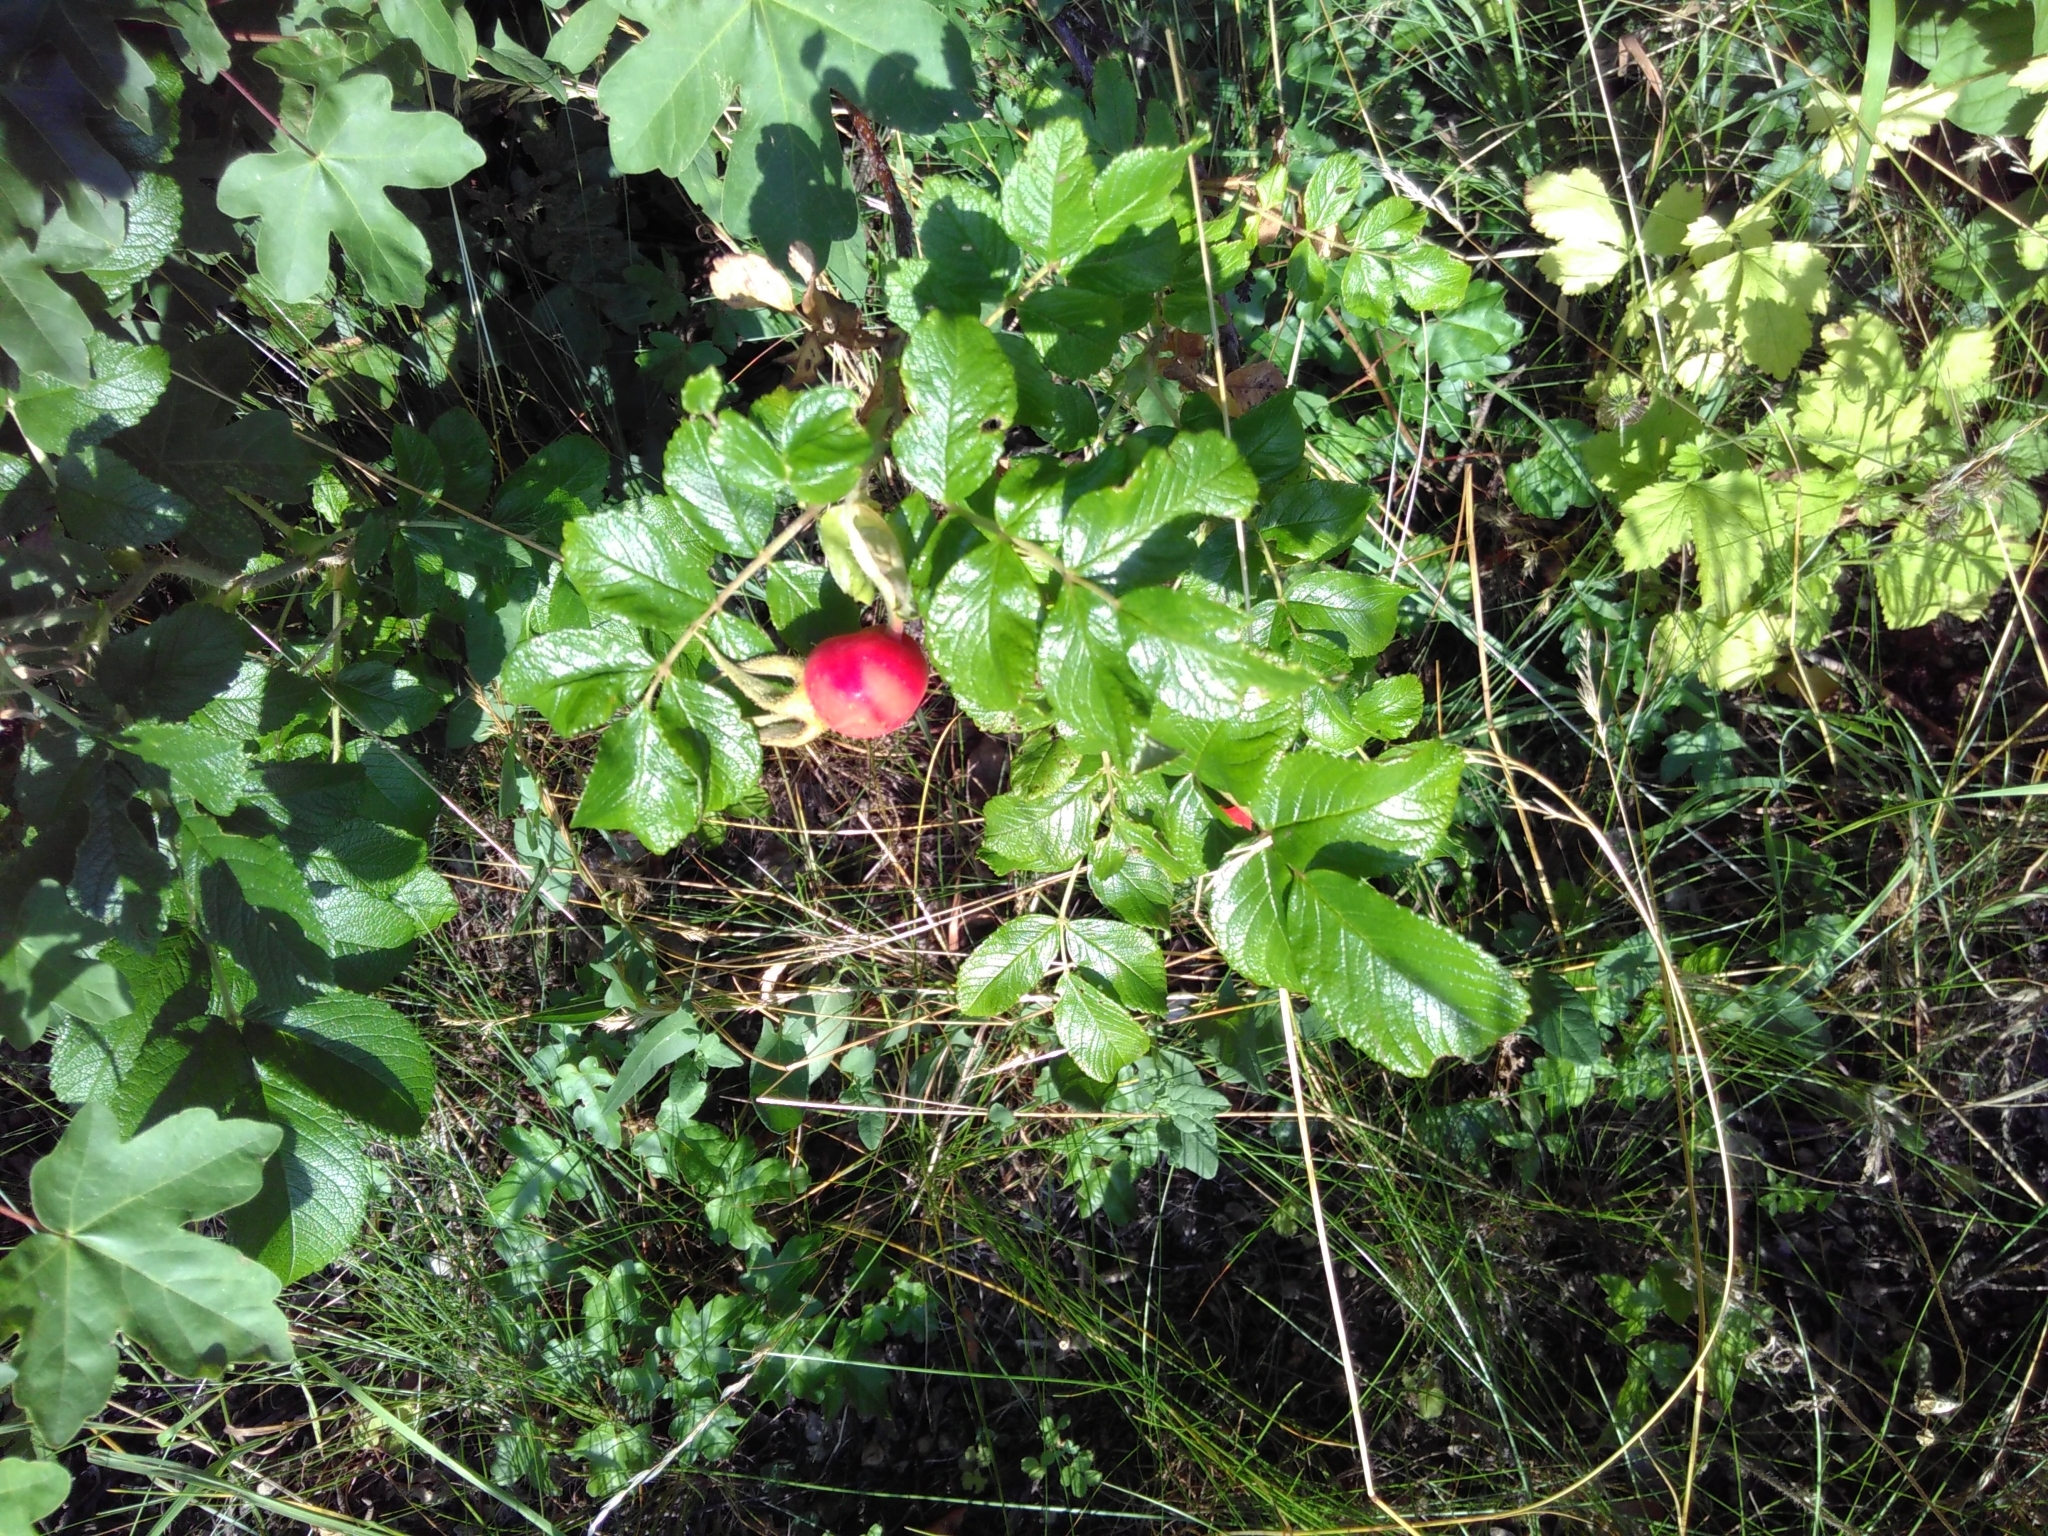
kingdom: Plantae
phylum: Tracheophyta
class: Magnoliopsida
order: Rosales
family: Rosaceae
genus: Rosa
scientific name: Rosa rugosa
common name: Japanese rose
